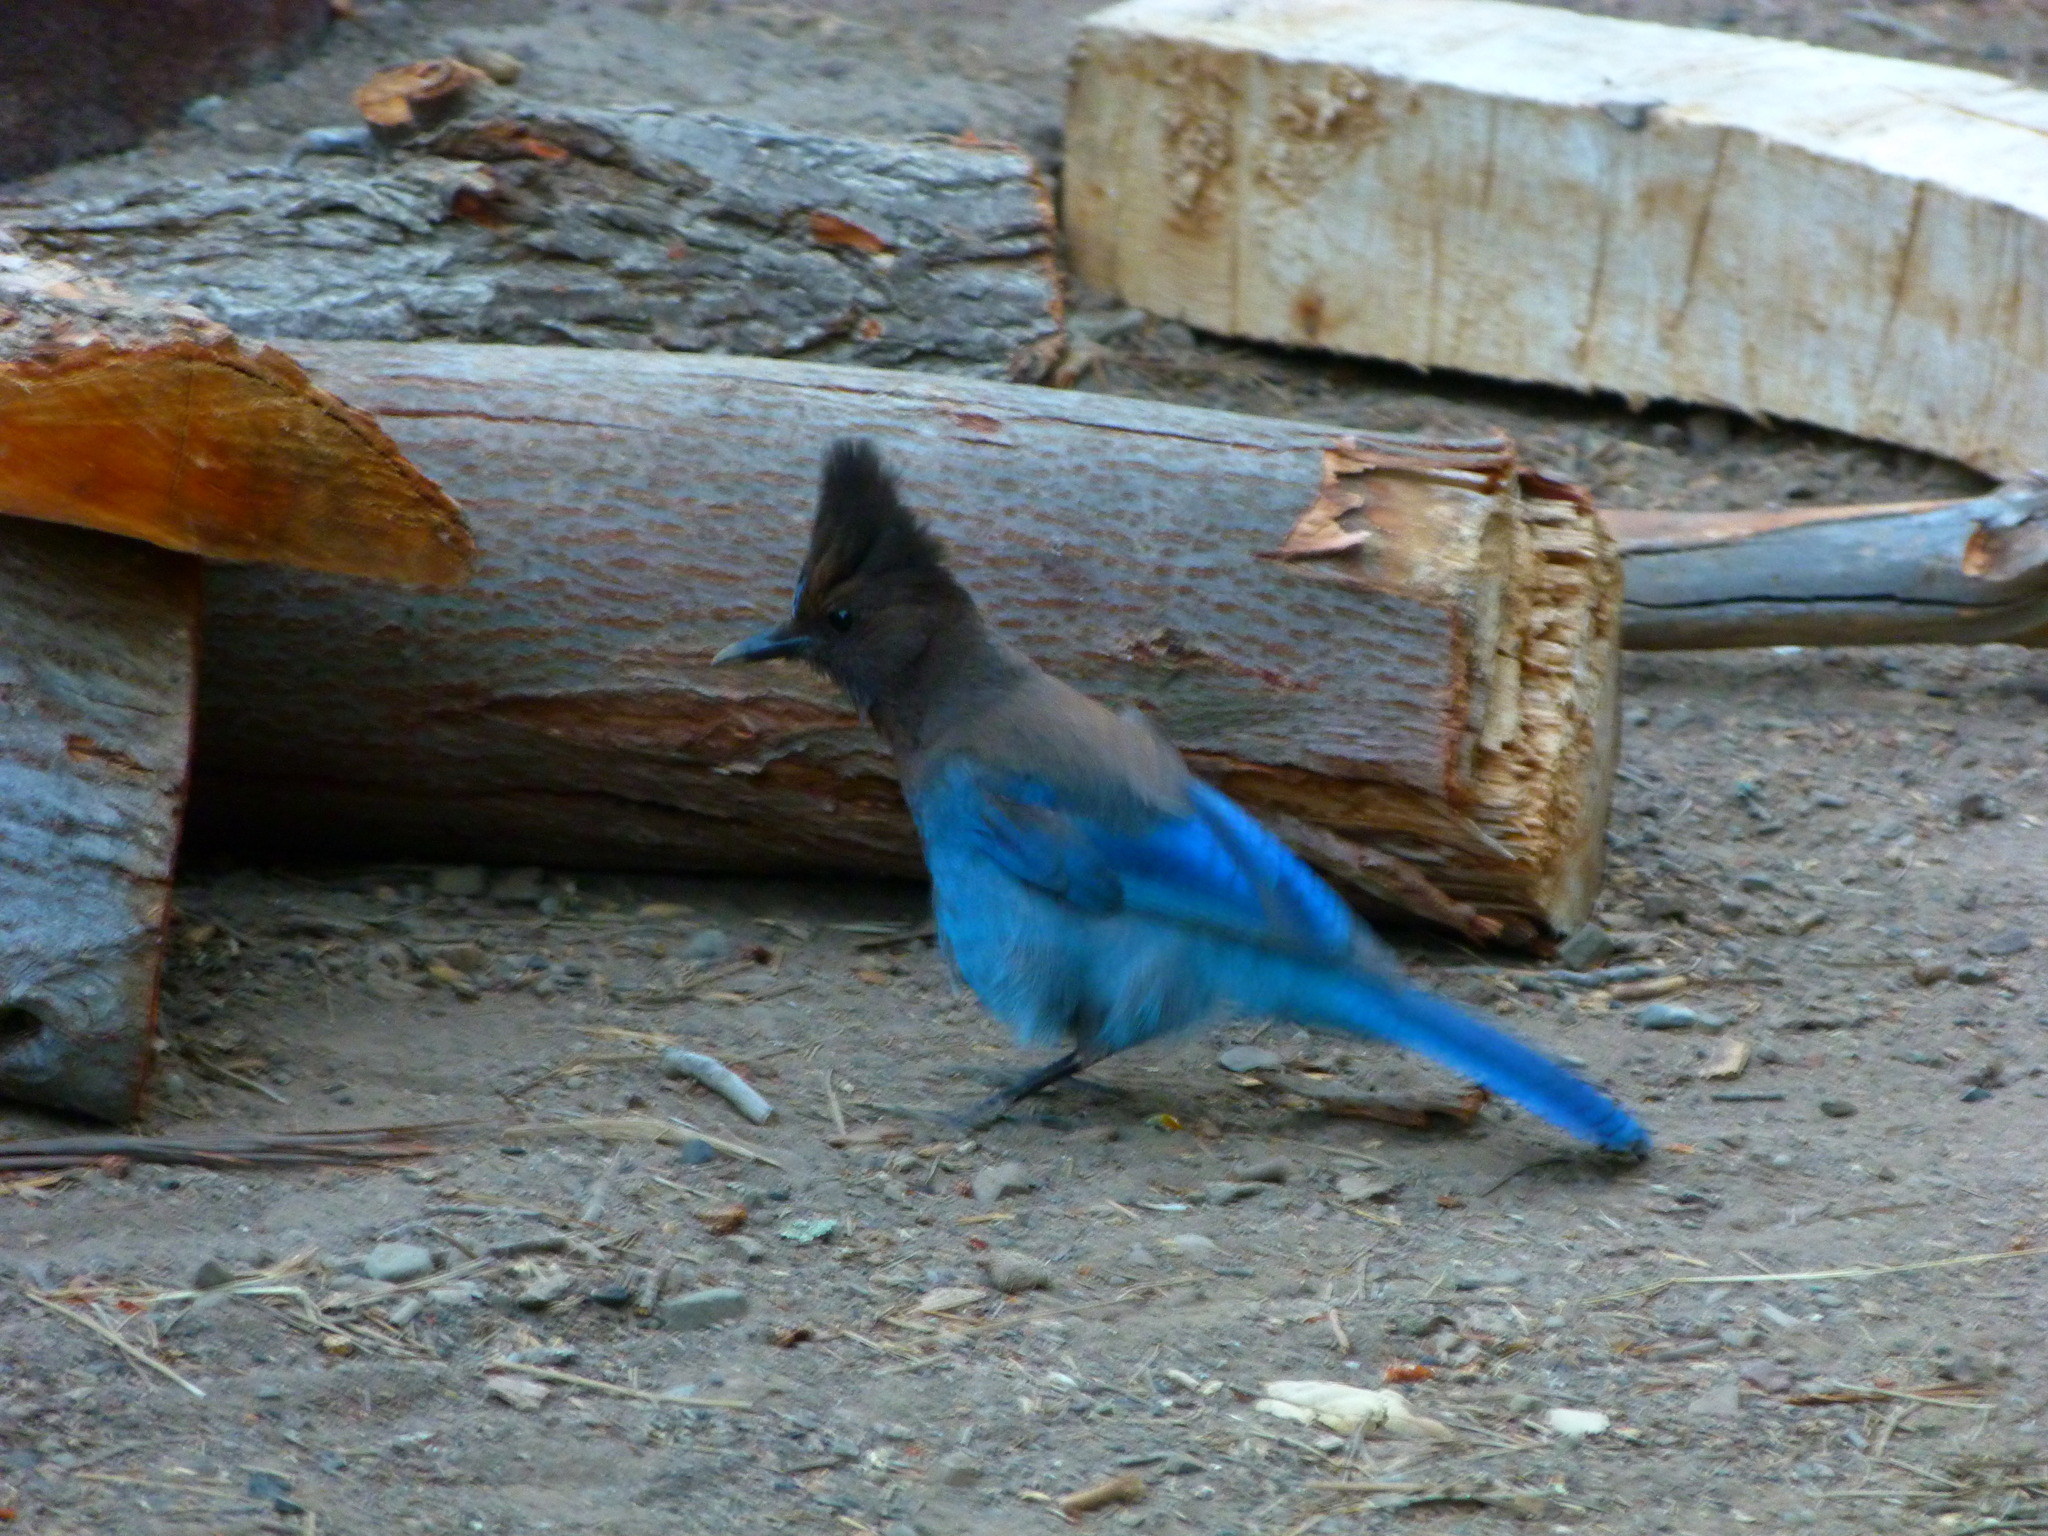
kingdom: Animalia
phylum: Chordata
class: Aves
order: Passeriformes
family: Corvidae
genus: Cyanocitta
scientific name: Cyanocitta stelleri
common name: Steller's jay
